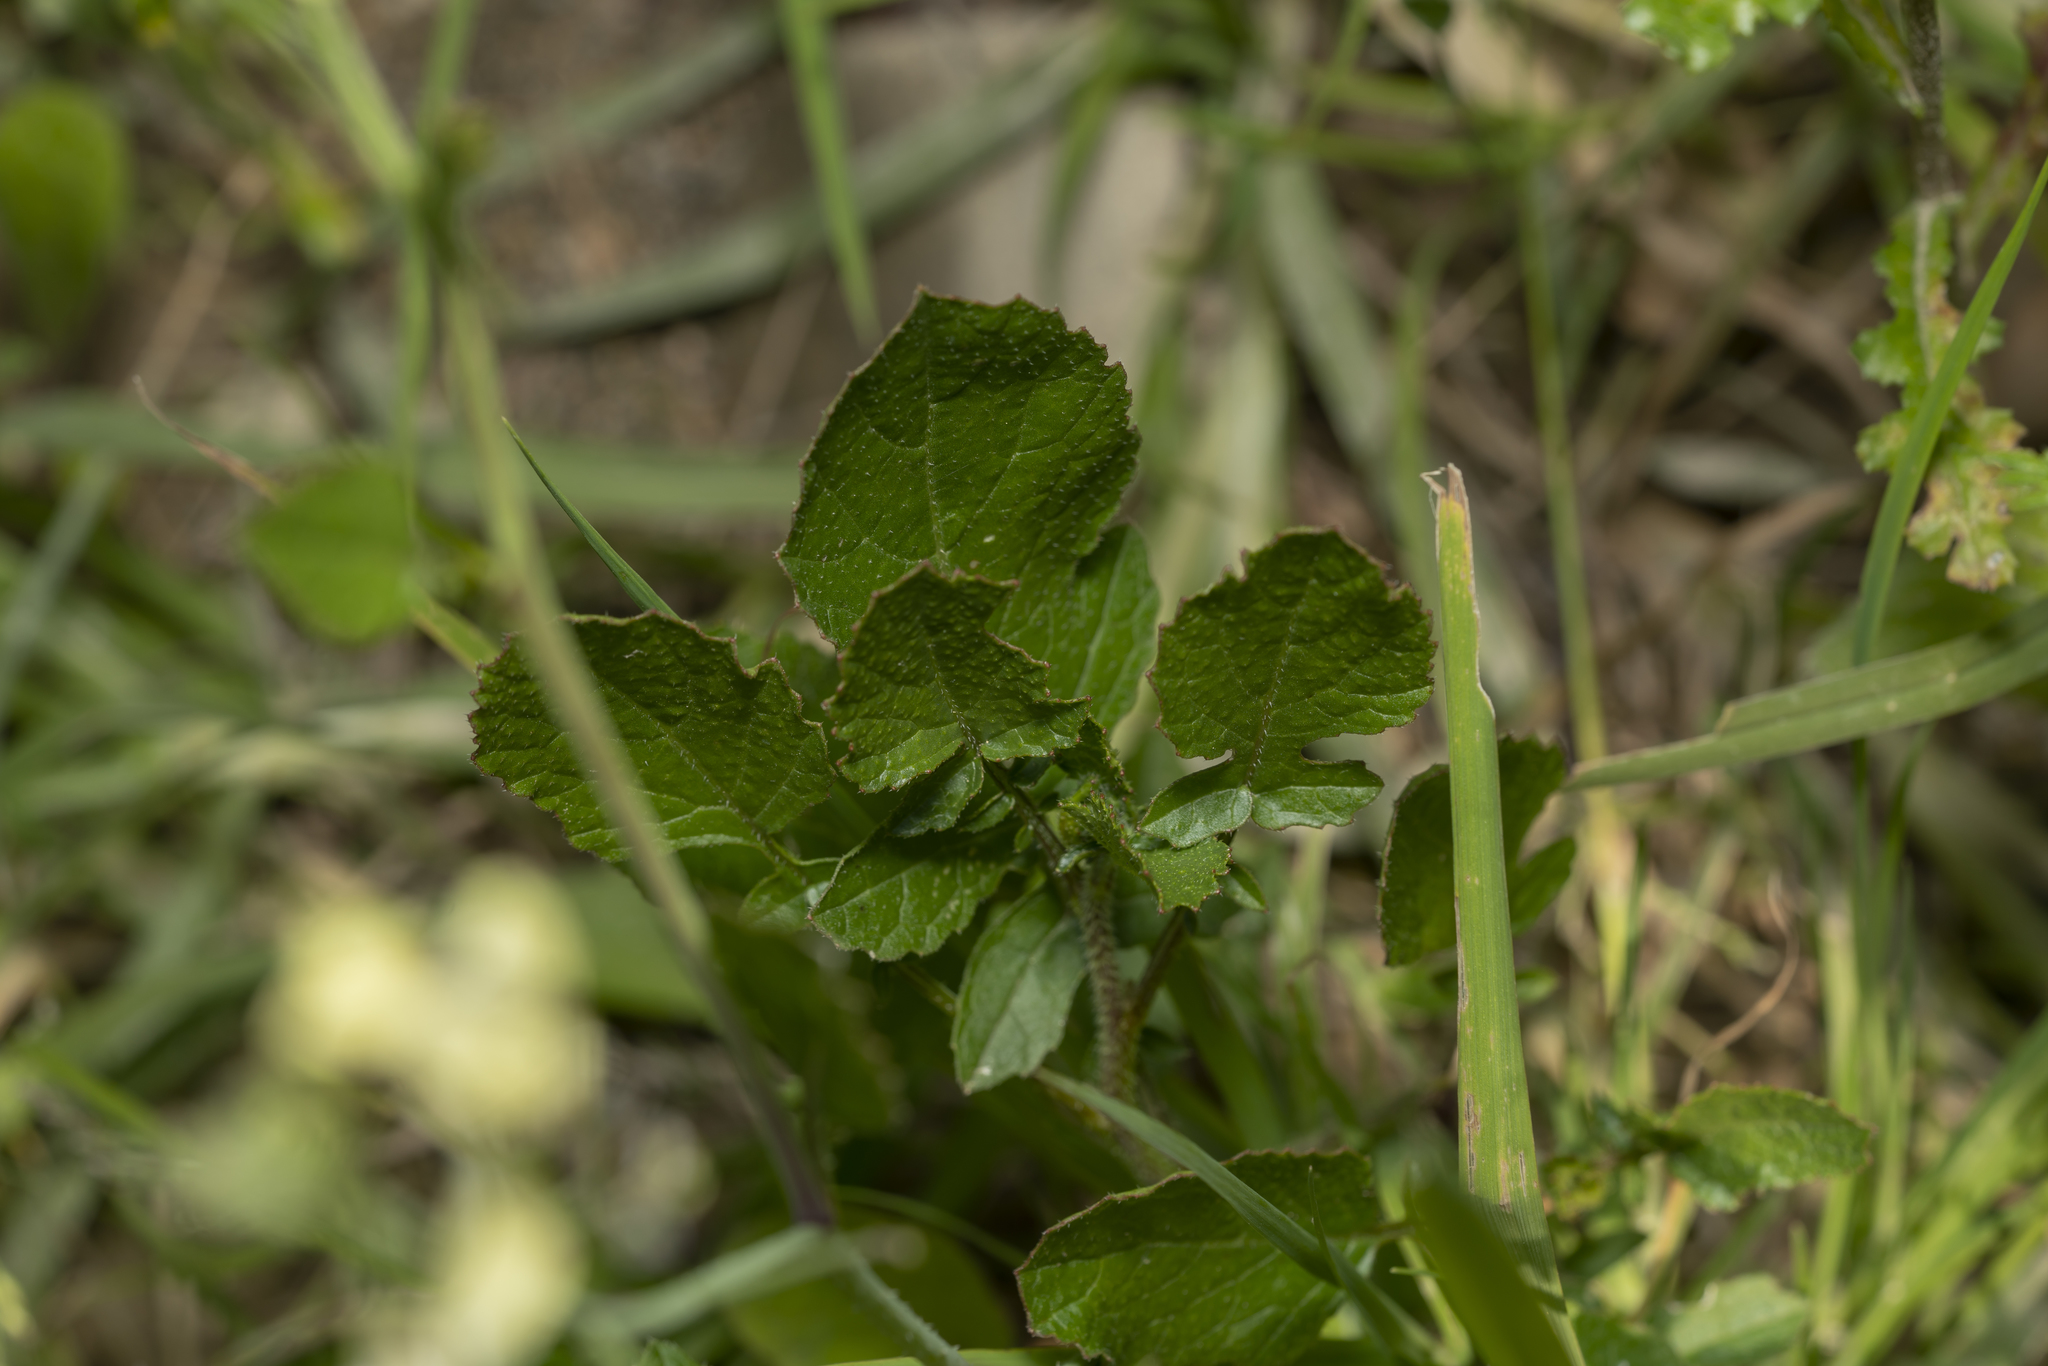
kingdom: Plantae
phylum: Tracheophyta
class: Magnoliopsida
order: Brassicales
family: Brassicaceae
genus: Raphanus
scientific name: Raphanus raphanistrum
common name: Wild radish
